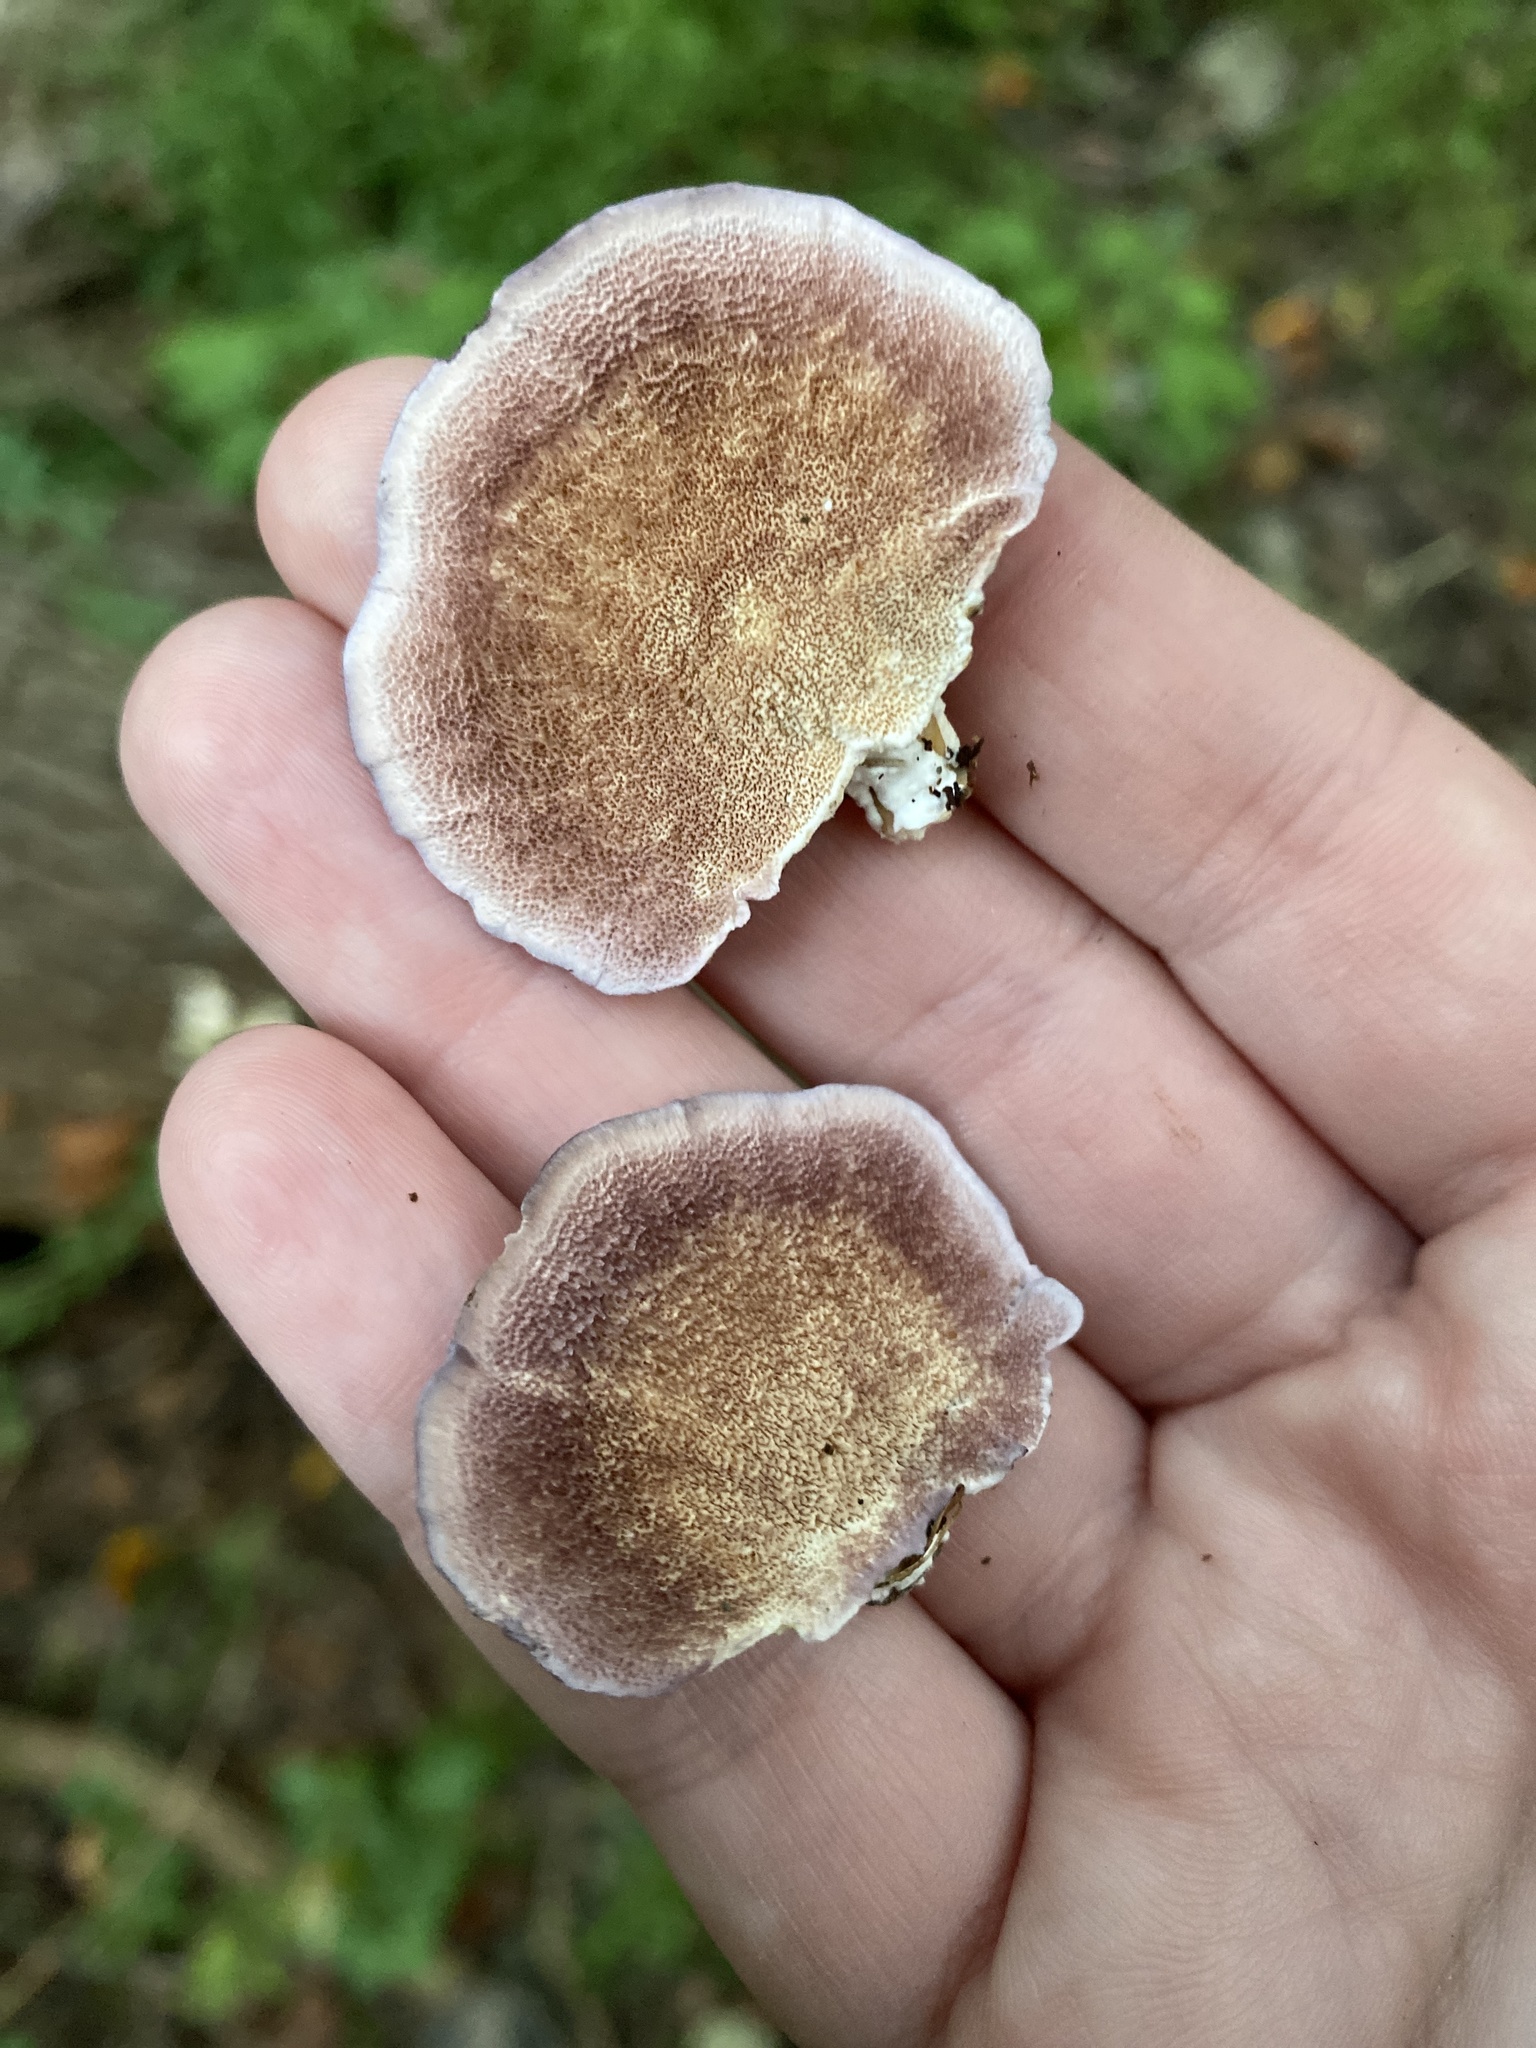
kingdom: Fungi
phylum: Basidiomycota
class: Agaricomycetes
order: Hymenochaetales
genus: Trichaptum
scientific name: Trichaptum biforme
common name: Violet-toothed polypore
